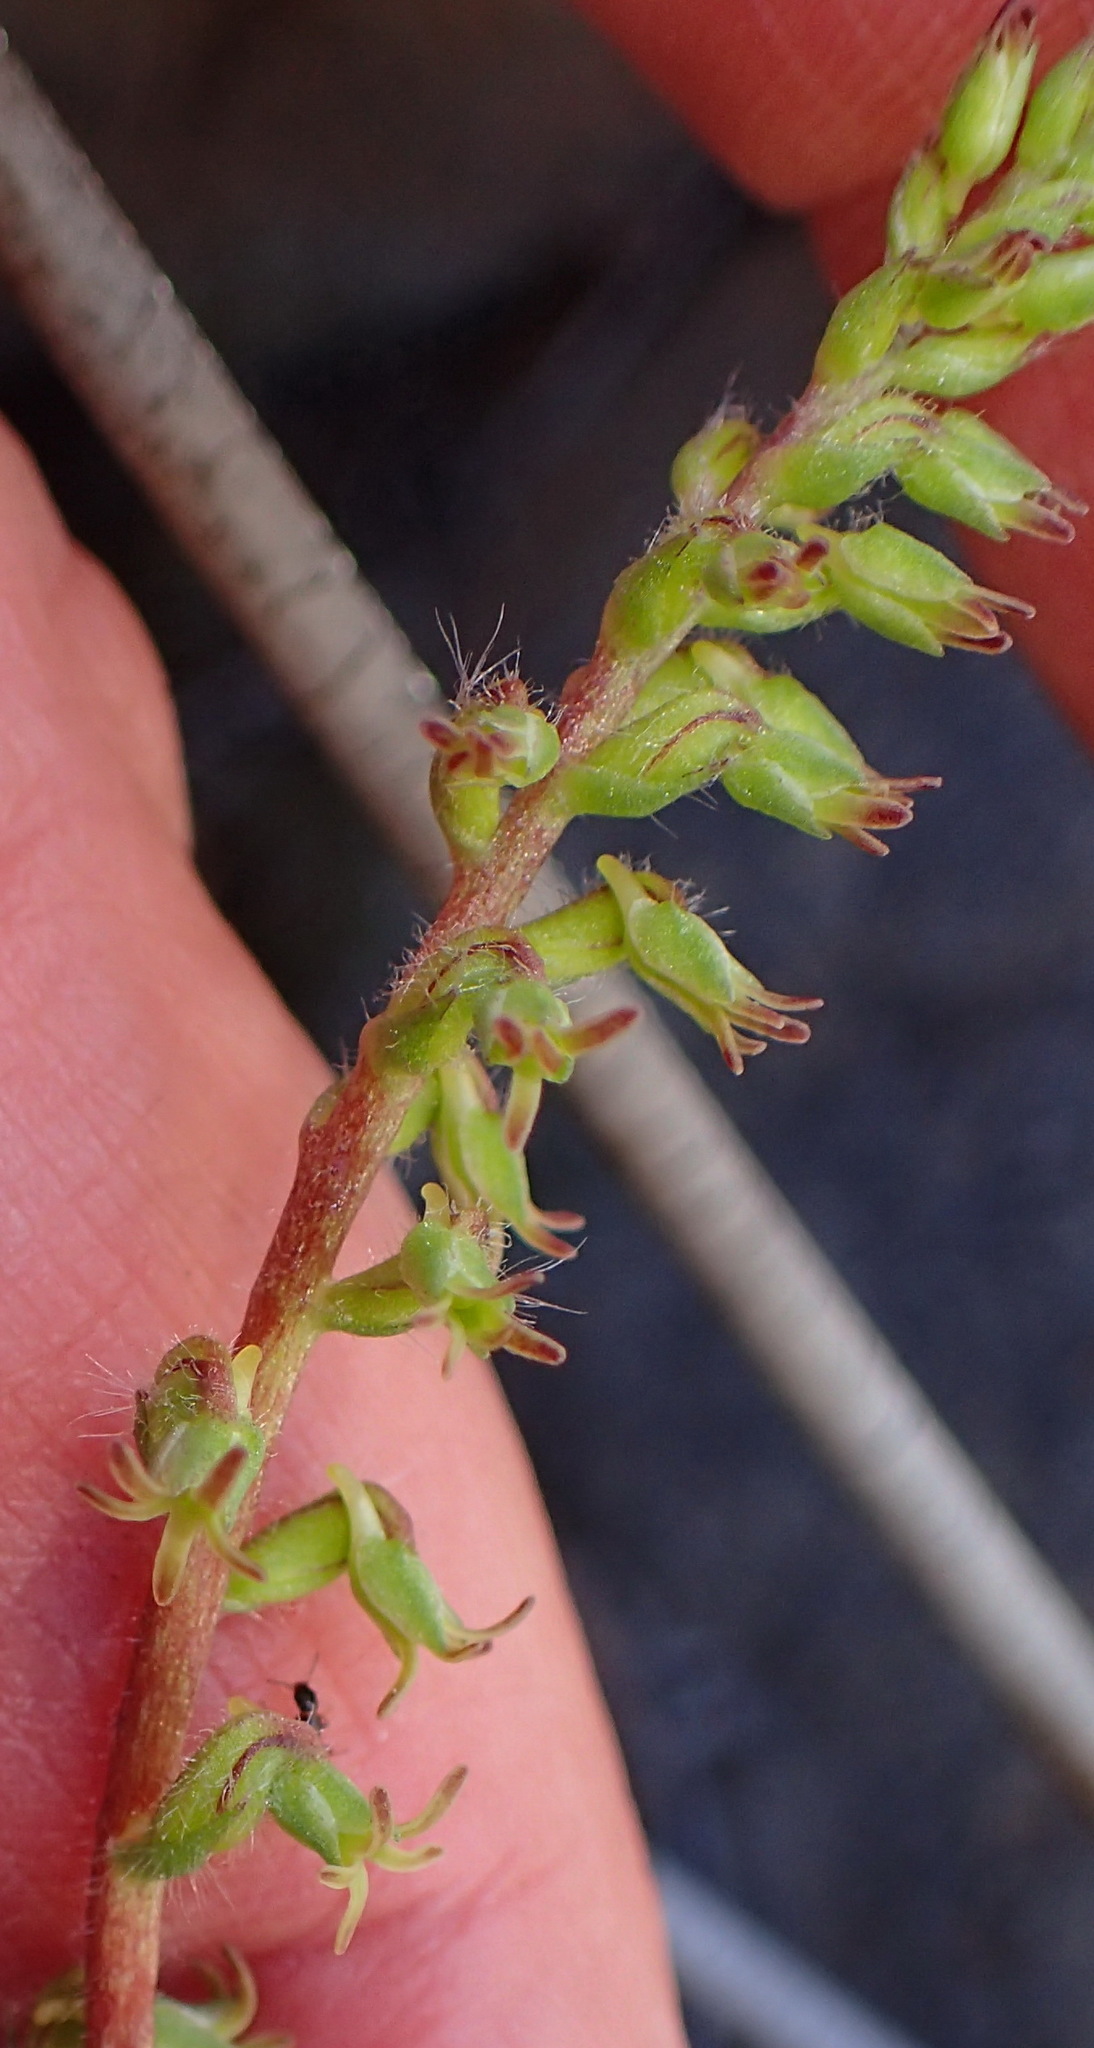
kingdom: Plantae
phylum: Tracheophyta
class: Liliopsida
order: Asparagales
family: Orchidaceae
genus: Holothrix
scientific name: Holothrix villosa
